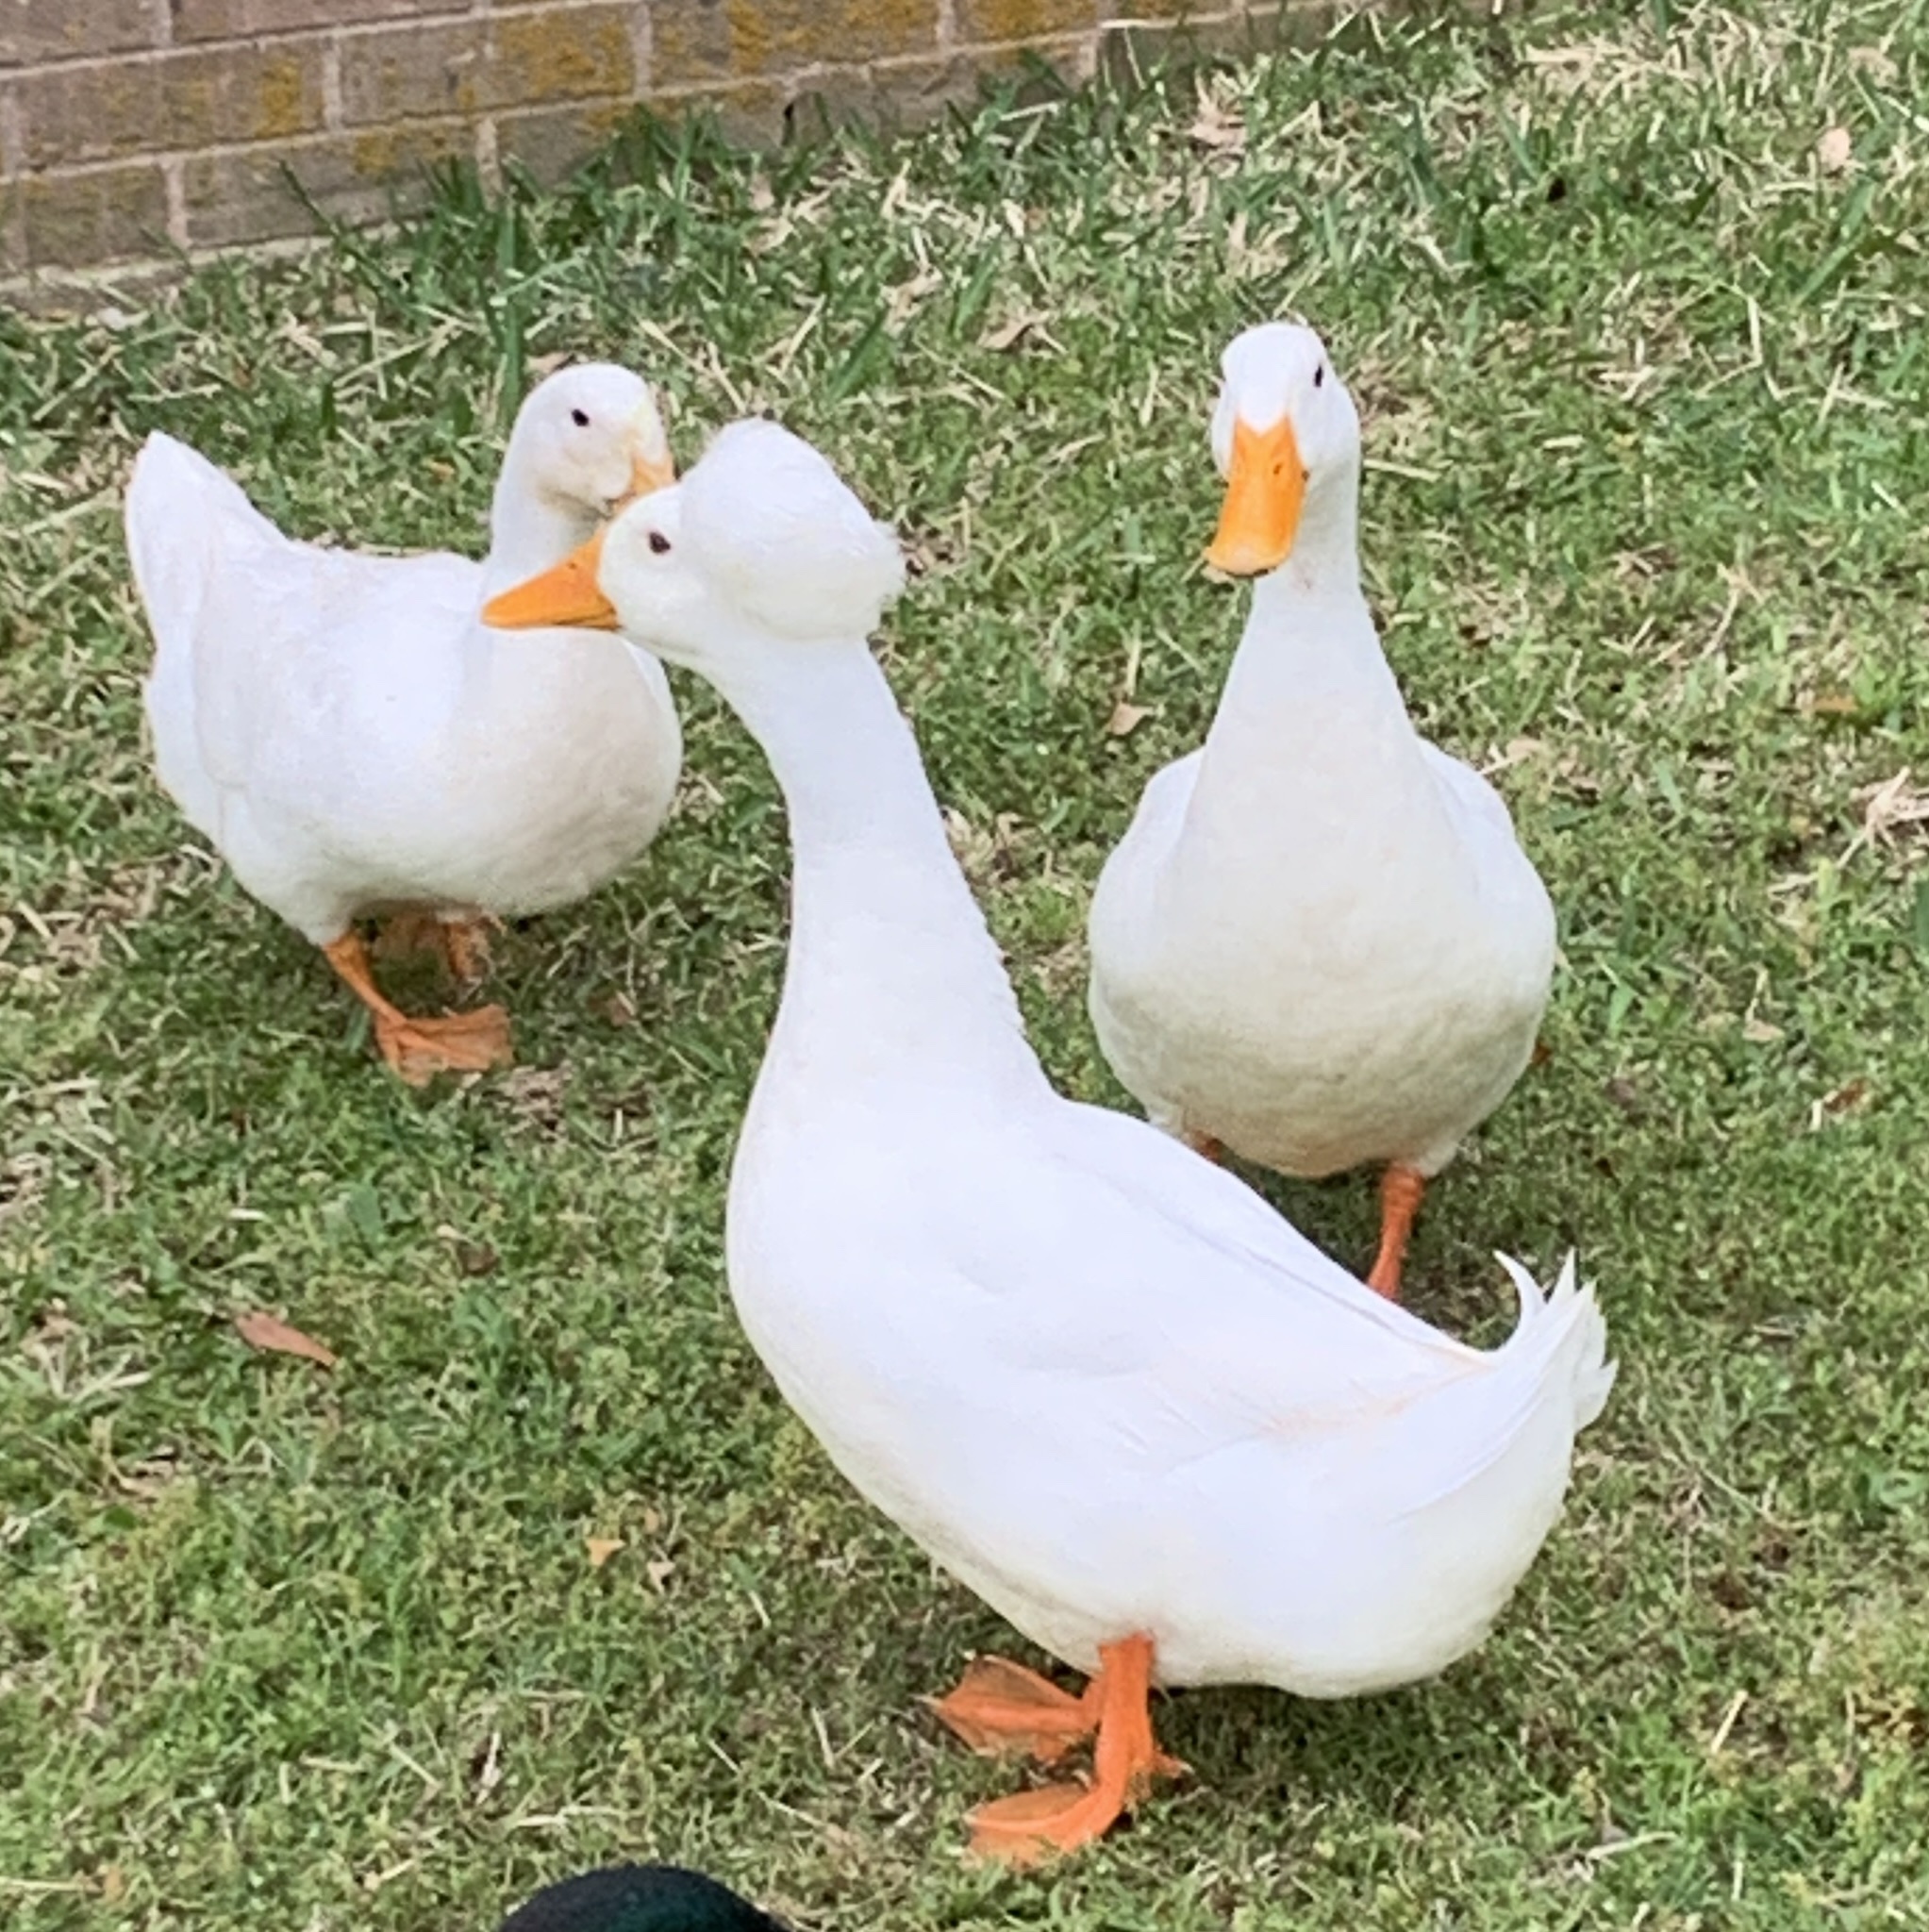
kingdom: Animalia
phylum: Chordata
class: Aves
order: Anseriformes
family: Anatidae
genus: Anas
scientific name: Anas platyrhynchos
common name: Mallard
